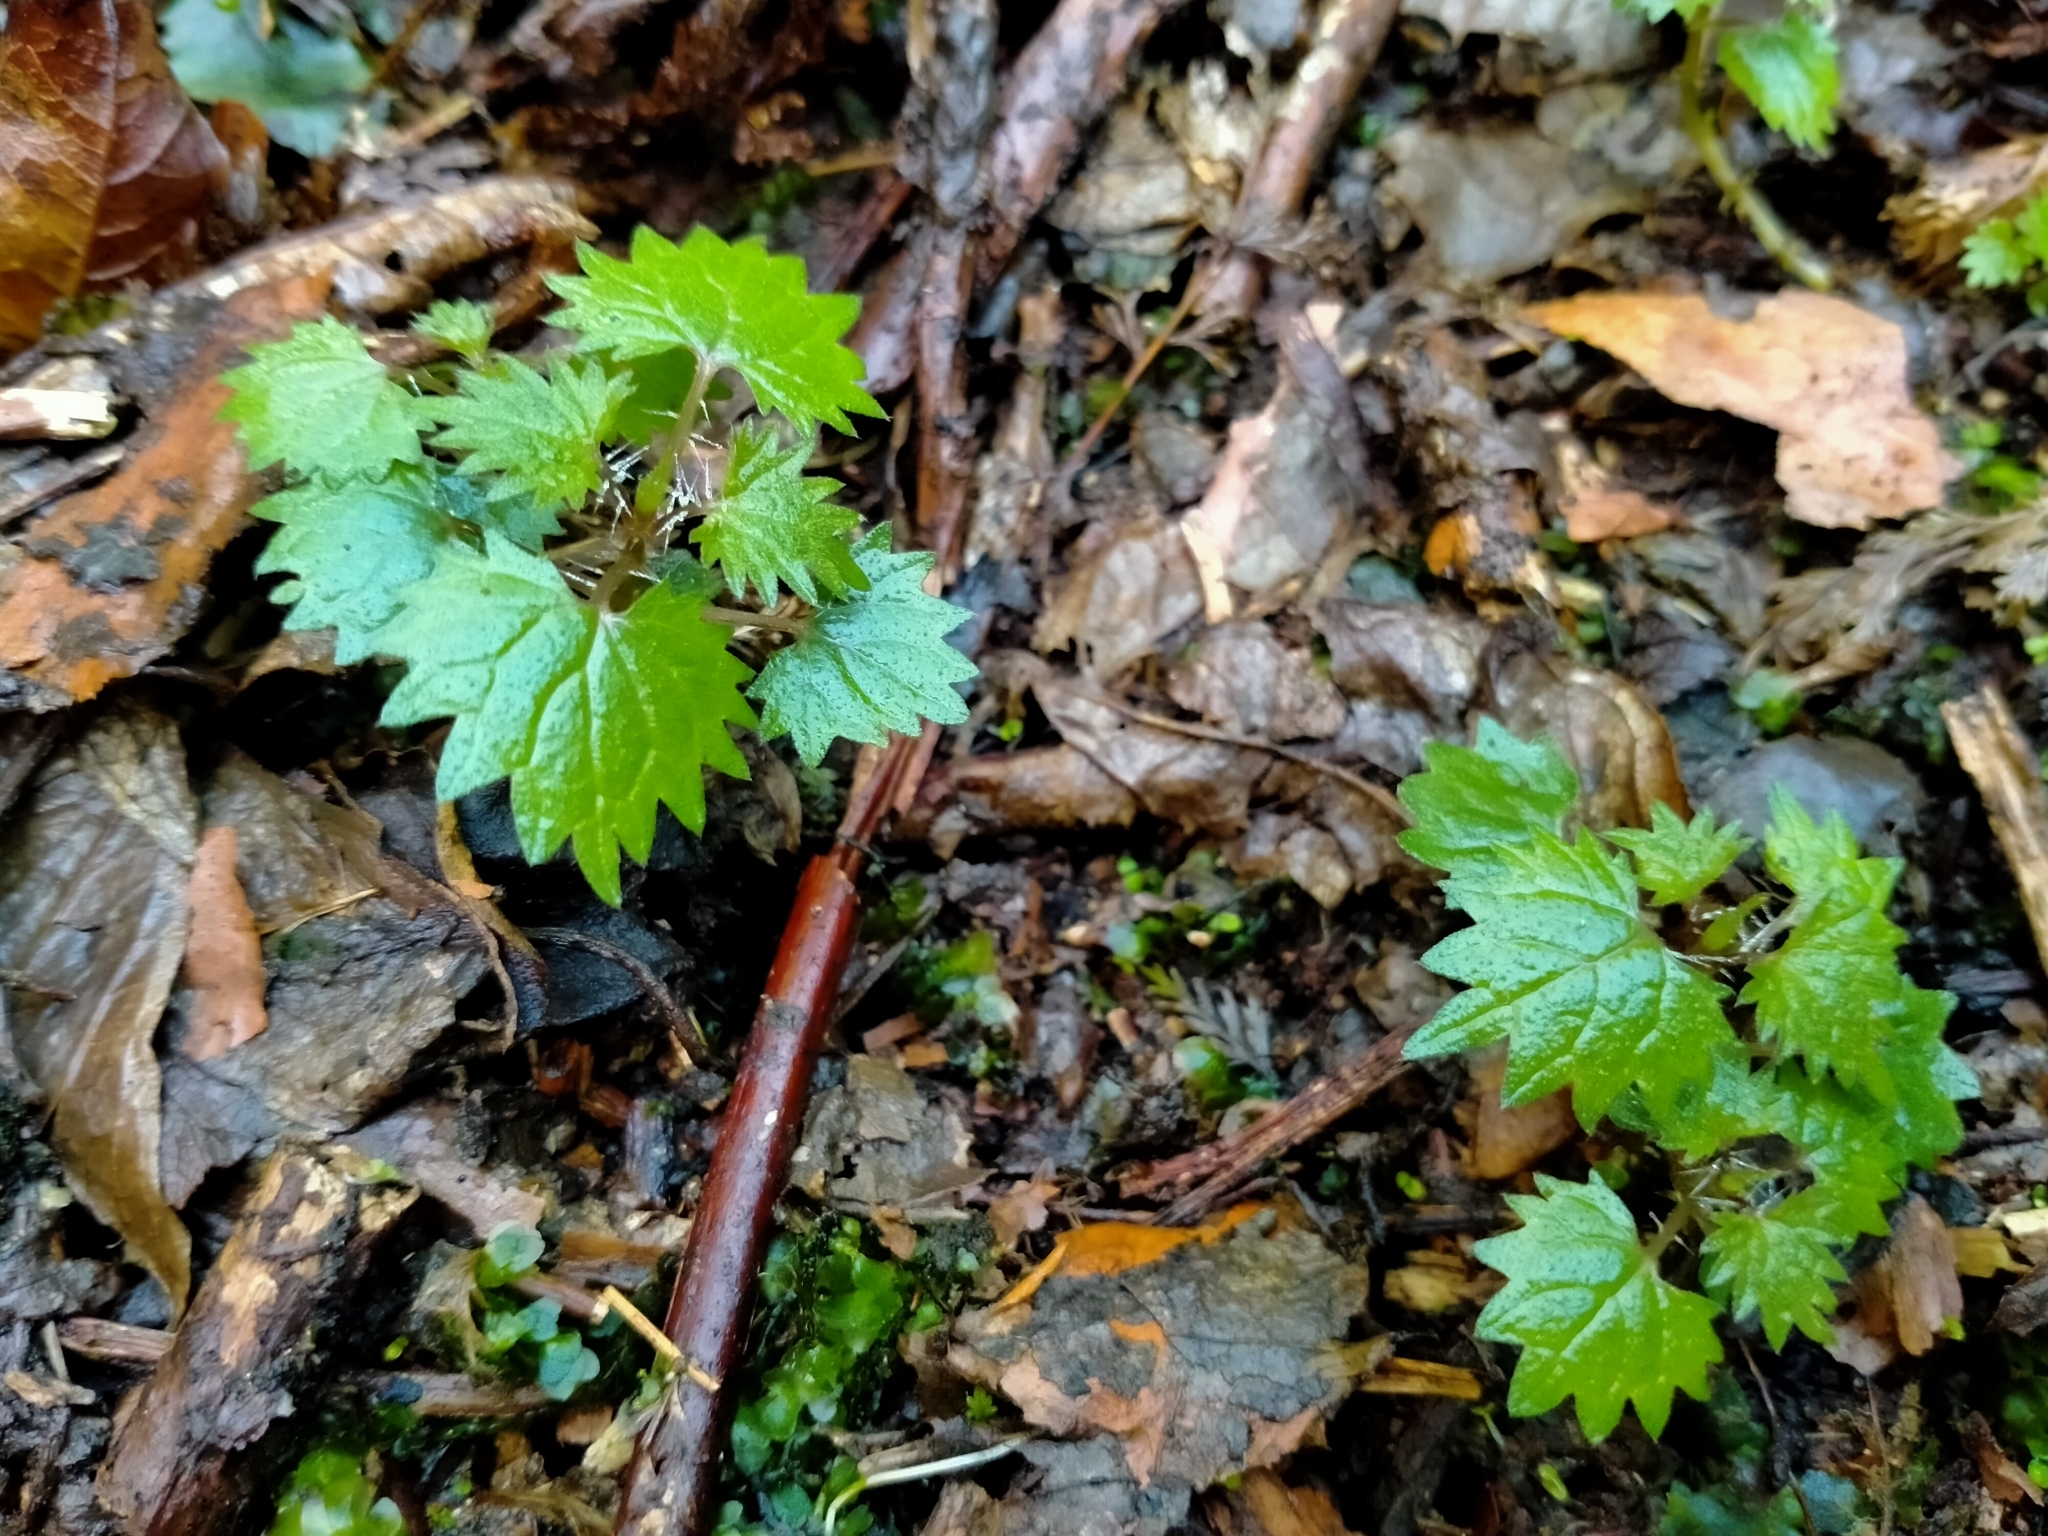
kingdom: Plantae
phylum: Tracheophyta
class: Magnoliopsida
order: Rosales
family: Urticaceae
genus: Urtica
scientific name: Urtica sykesii
